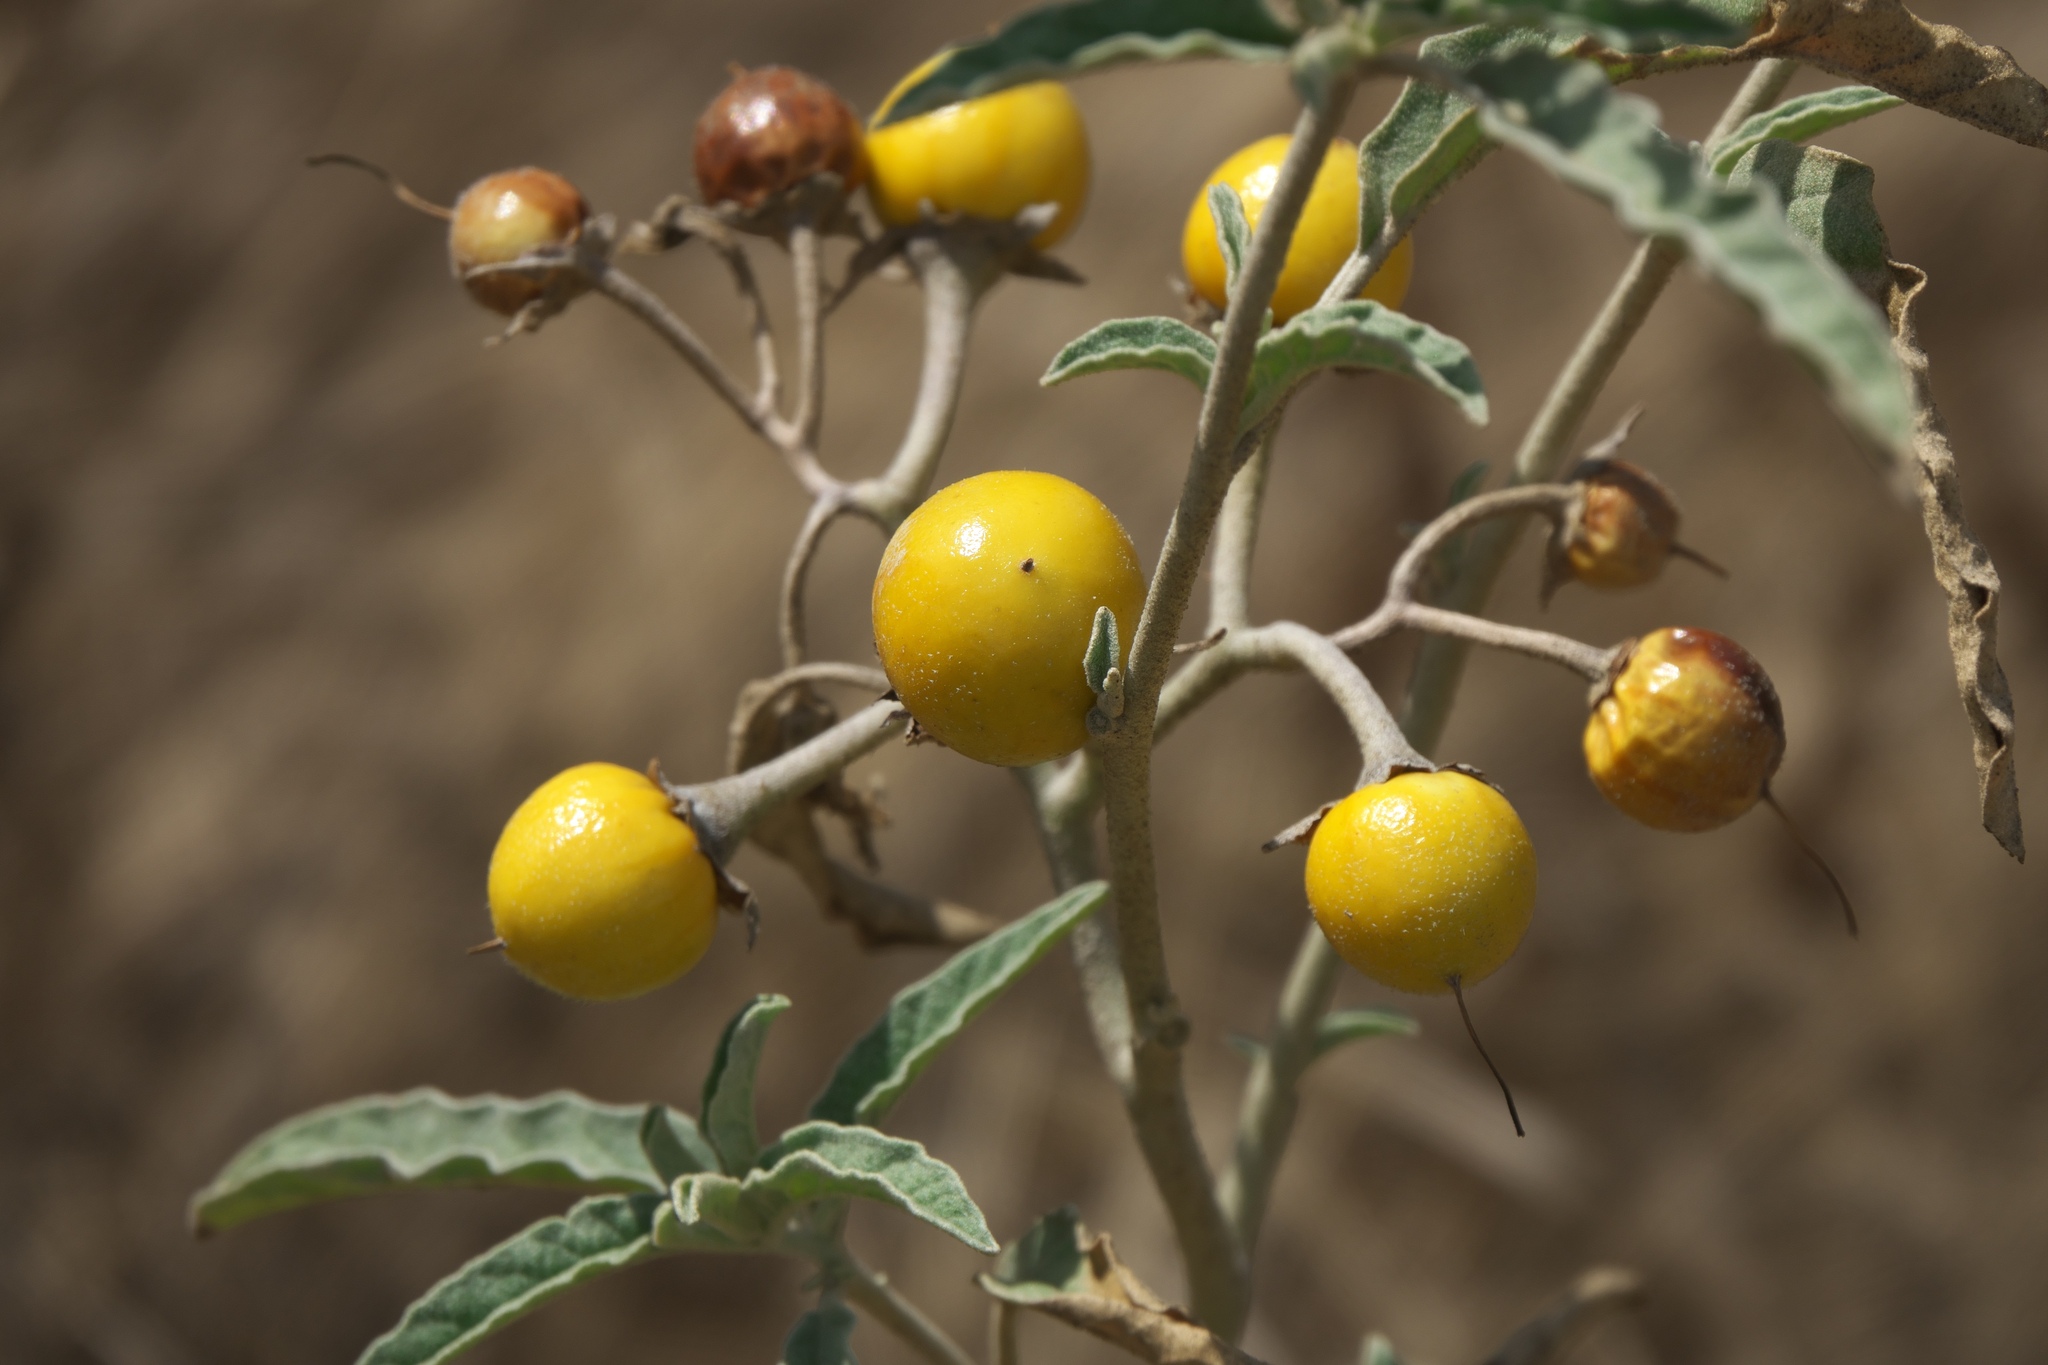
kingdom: Plantae
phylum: Tracheophyta
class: Magnoliopsida
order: Solanales
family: Solanaceae
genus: Solanum
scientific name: Solanum elaeagnifolium
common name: Silverleaf nightshade
